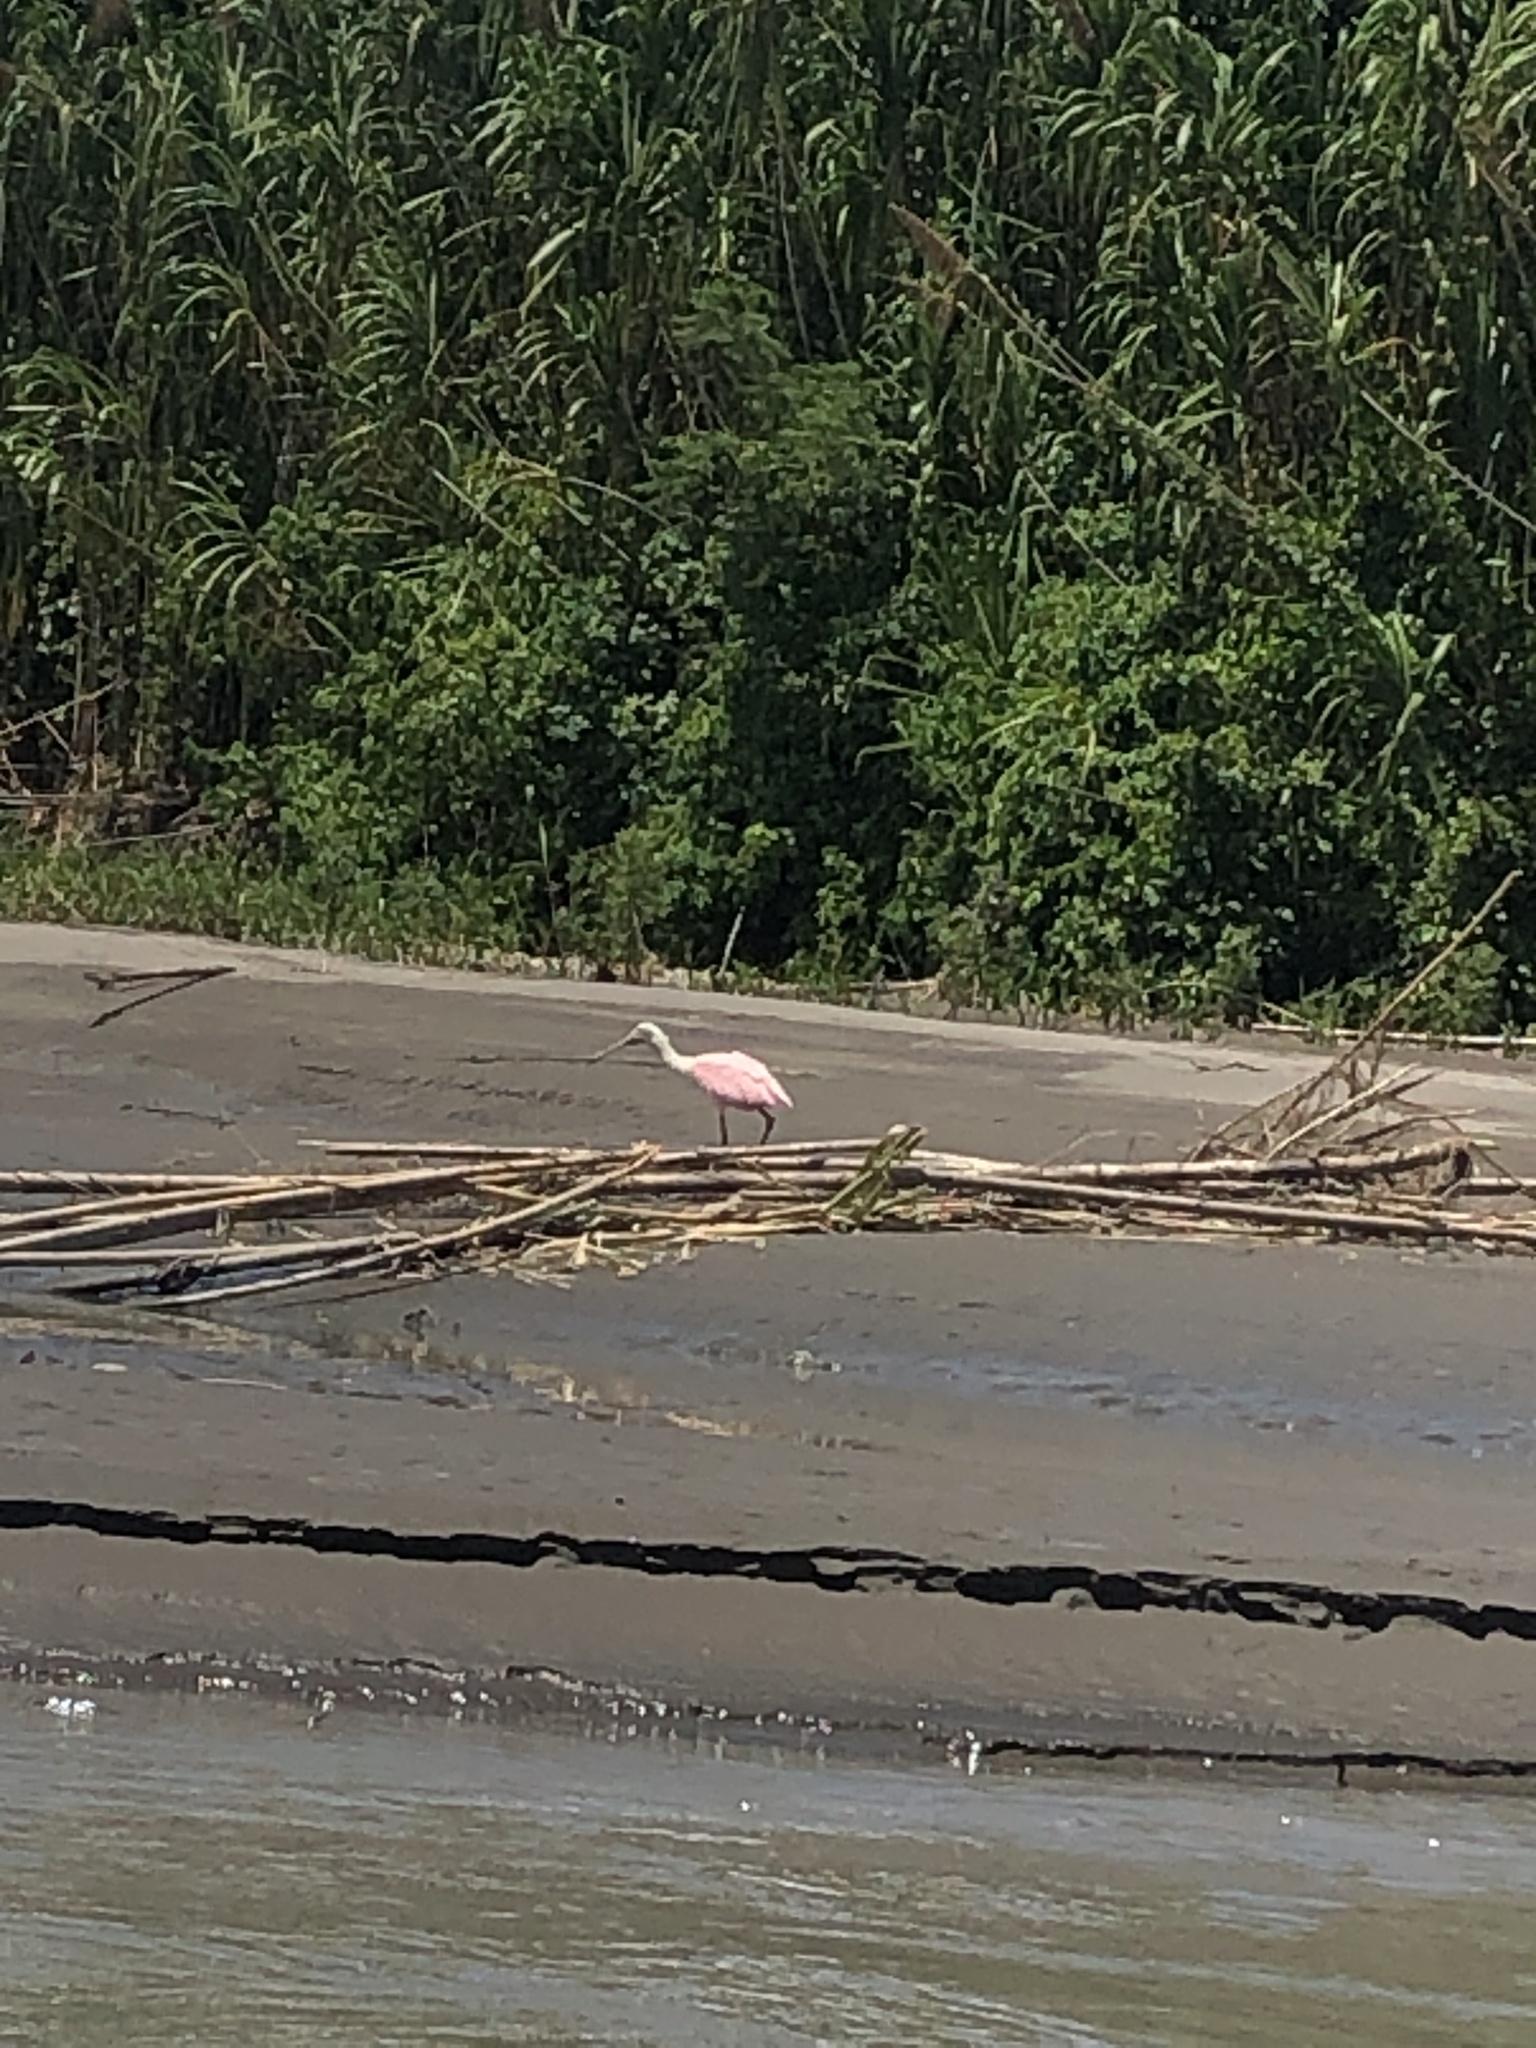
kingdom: Animalia
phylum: Chordata
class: Aves
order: Pelecaniformes
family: Threskiornithidae
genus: Platalea
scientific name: Platalea ajaja
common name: Roseate spoonbill
